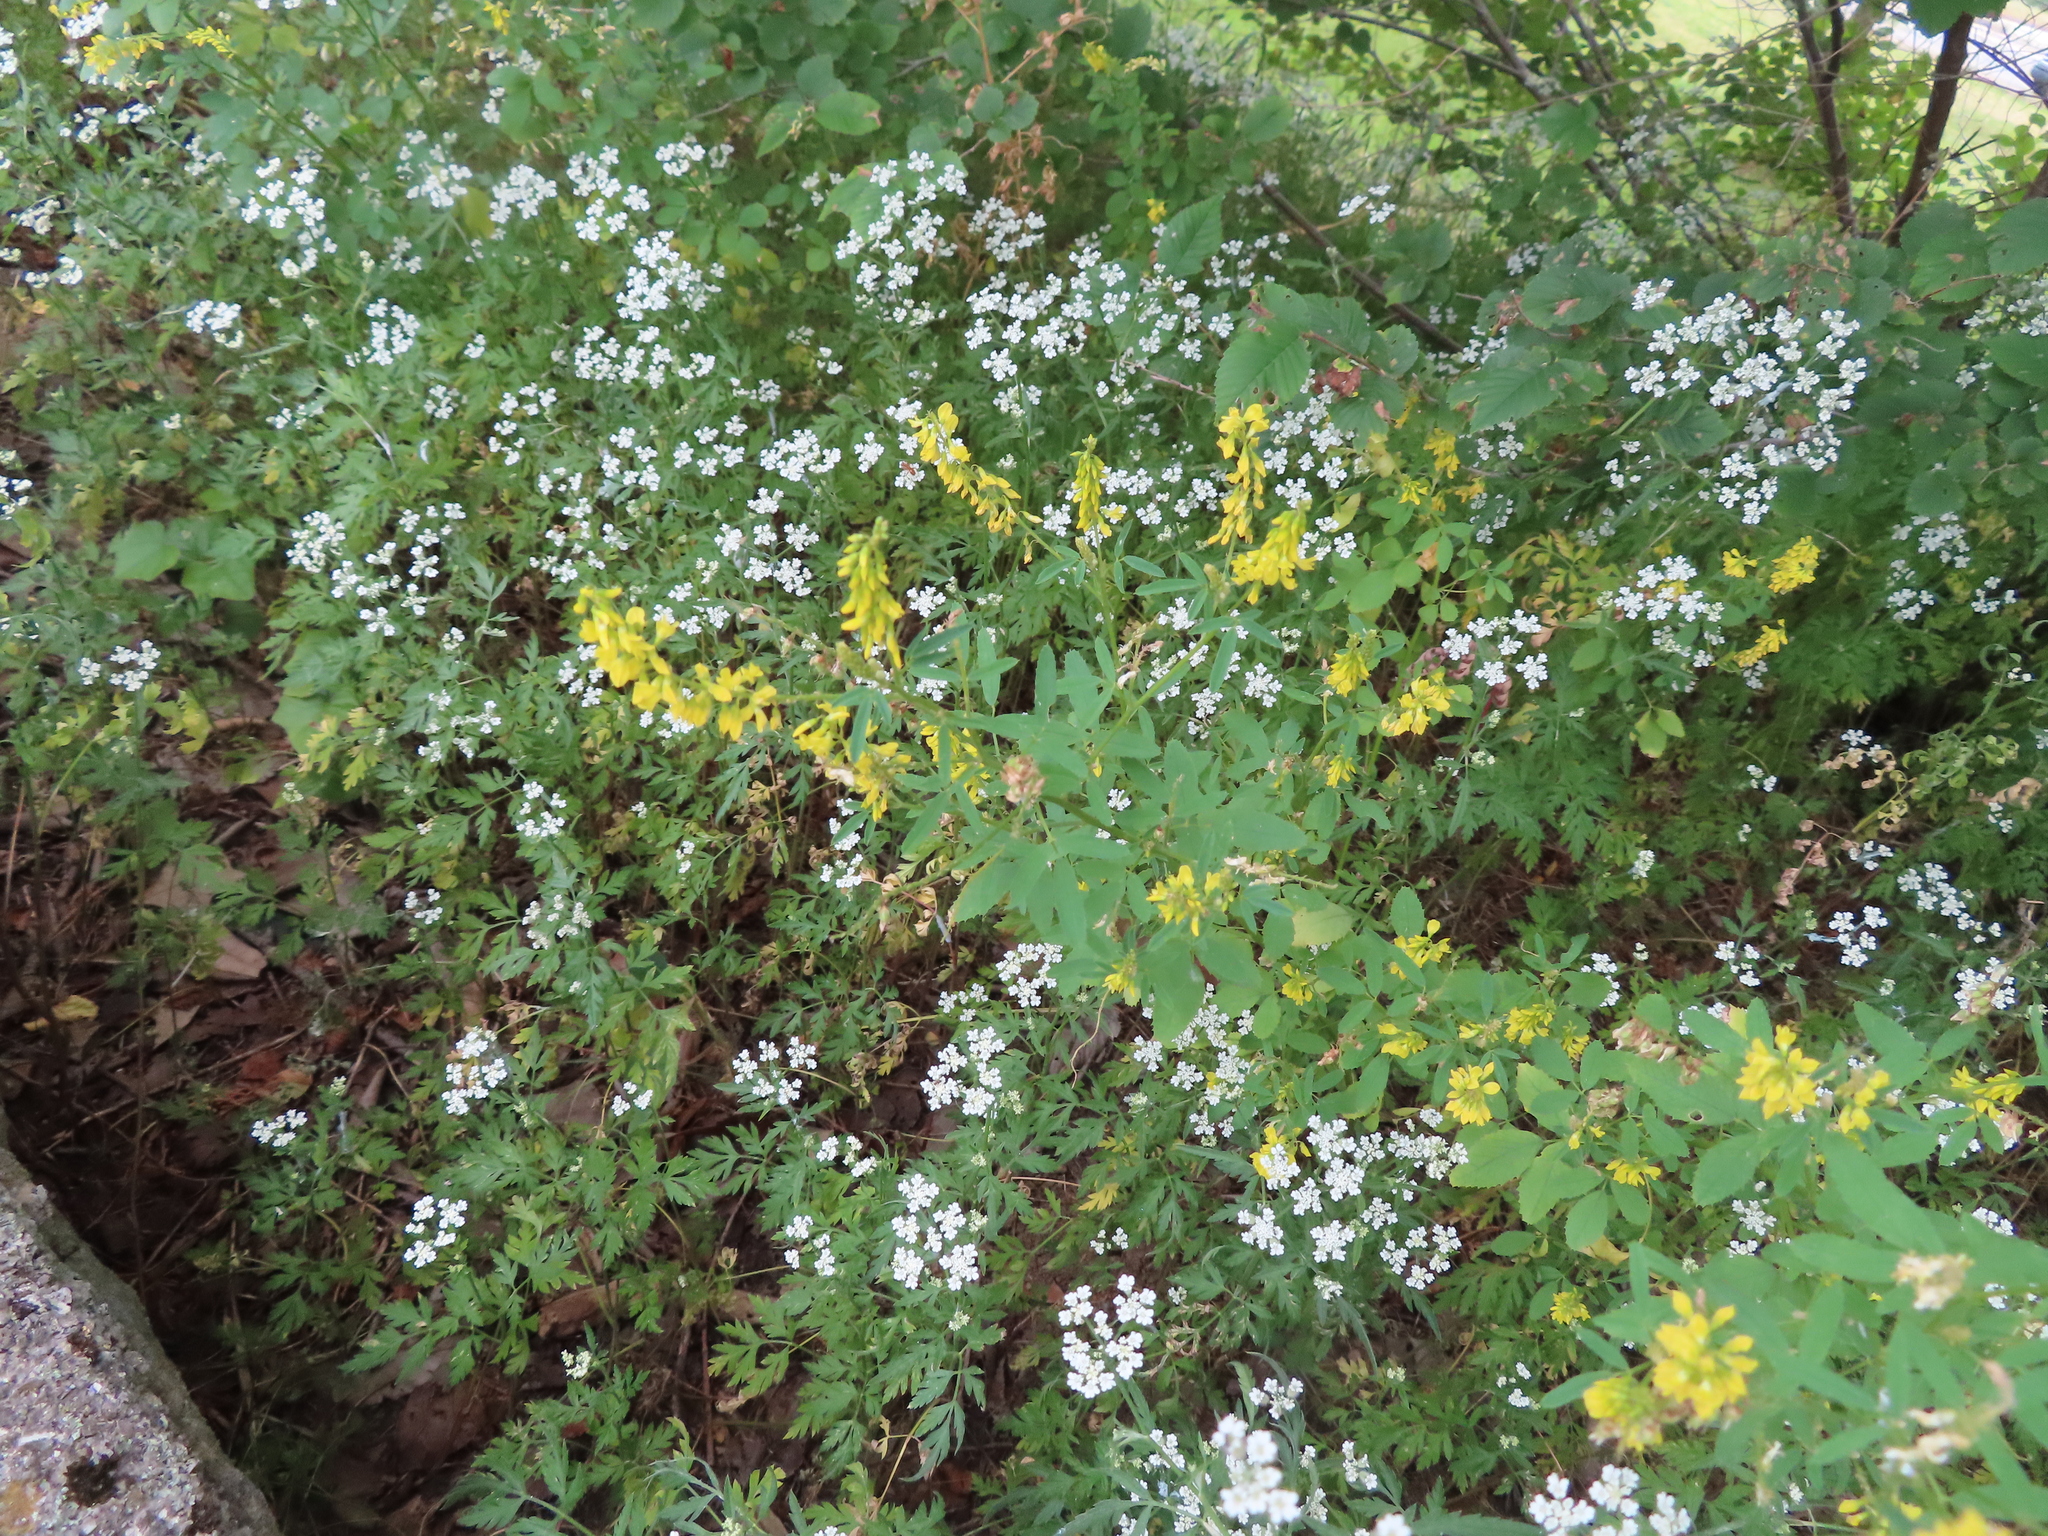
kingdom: Plantae
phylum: Tracheophyta
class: Magnoliopsida
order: Fabales
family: Fabaceae
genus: Melilotus
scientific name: Melilotus officinalis
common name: Sweetclover
